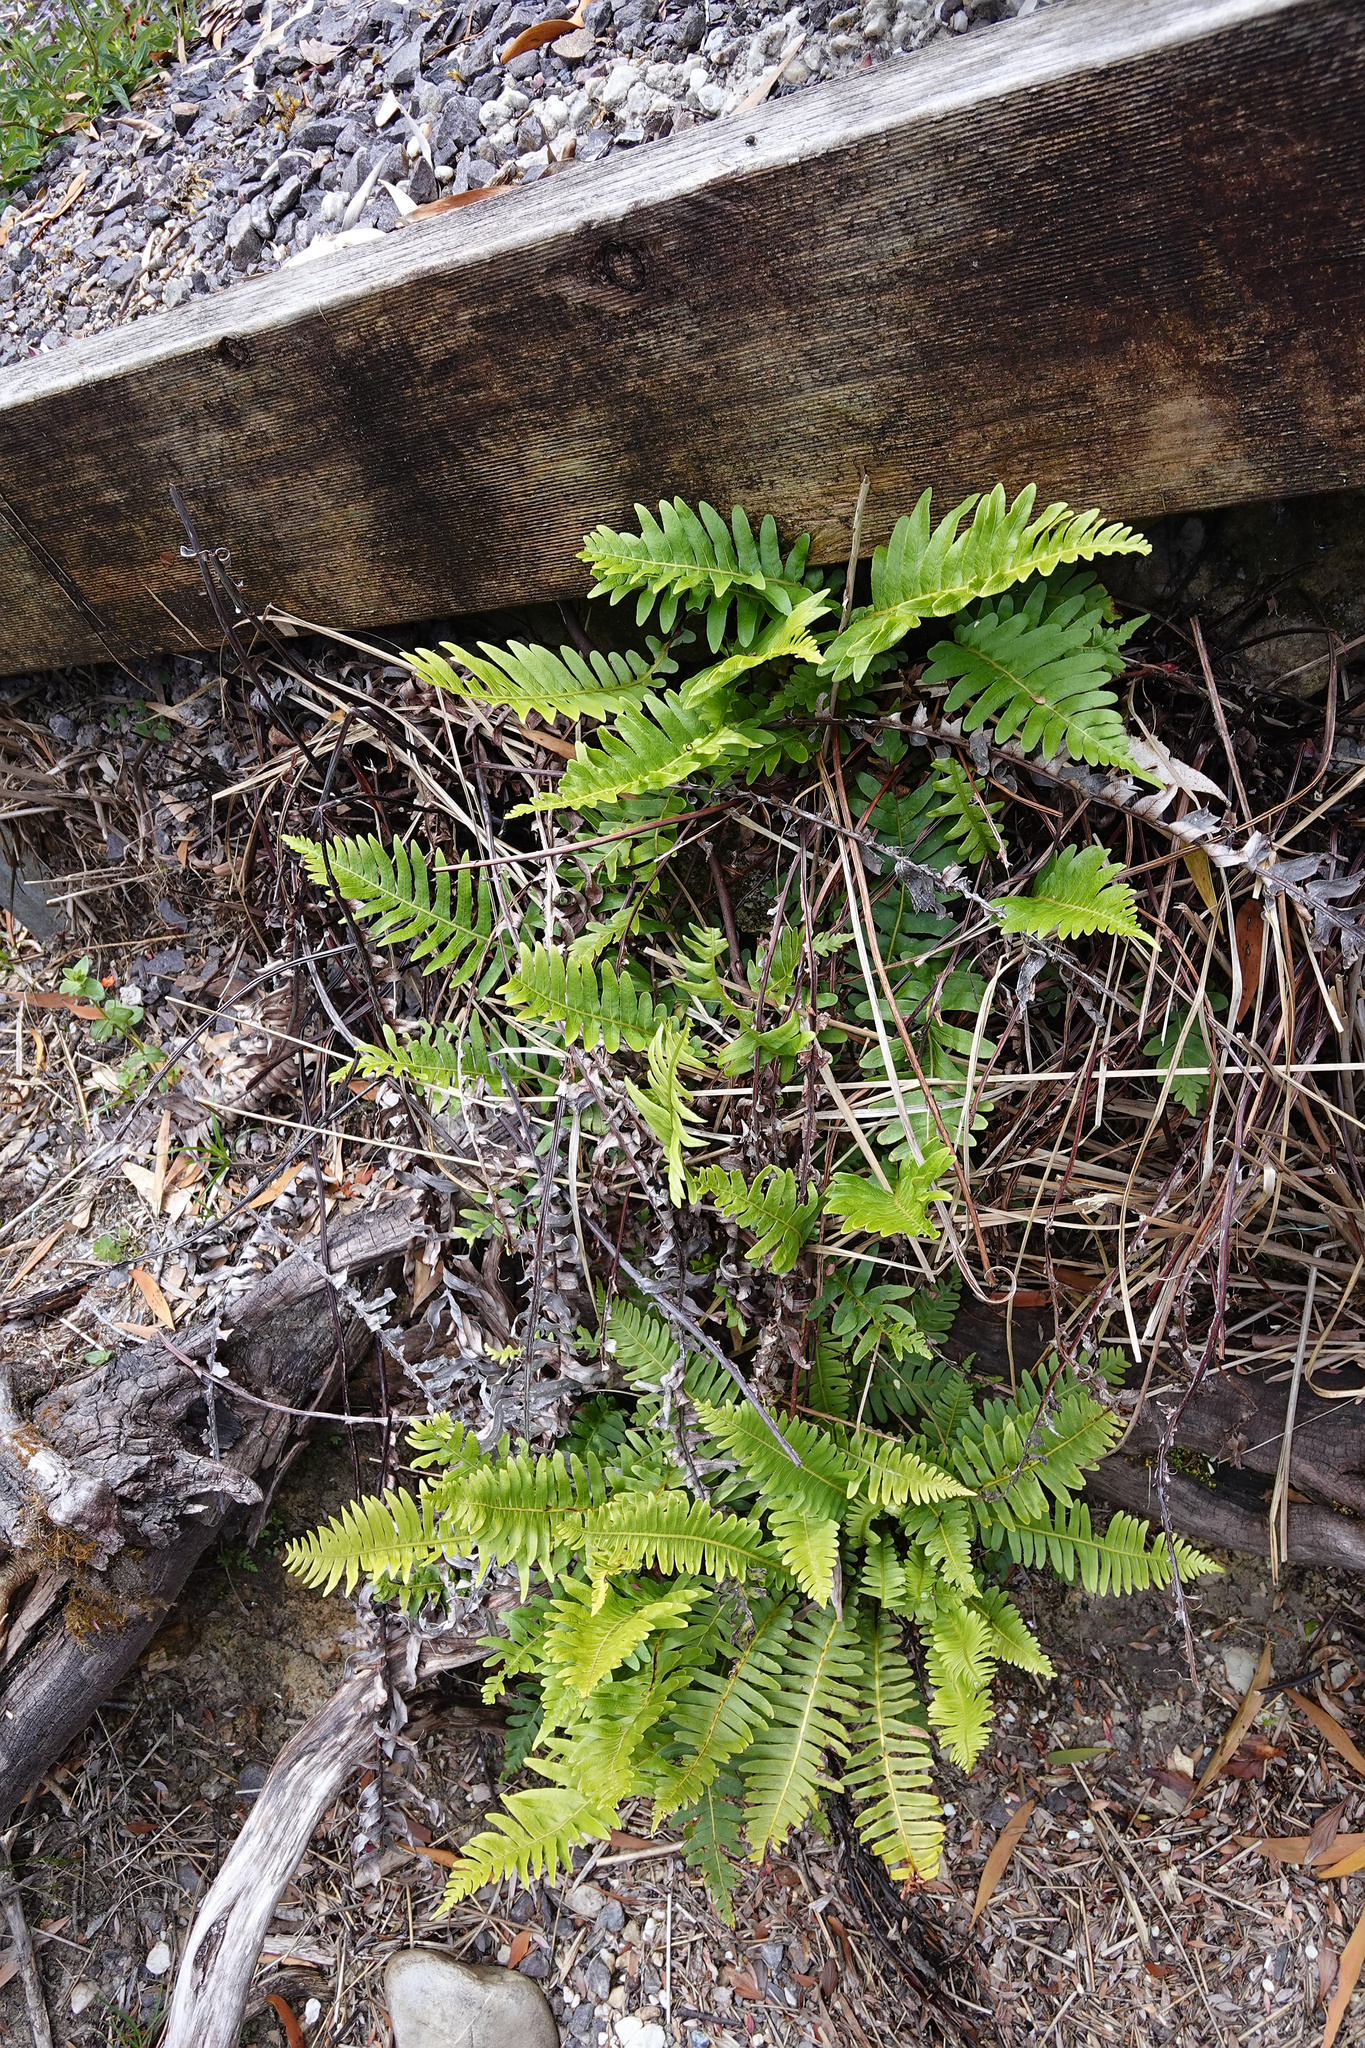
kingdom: Plantae
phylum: Tracheophyta
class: Polypodiopsida
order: Polypodiales
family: Blechnaceae
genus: Lomaria
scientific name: Lomaria nuda
